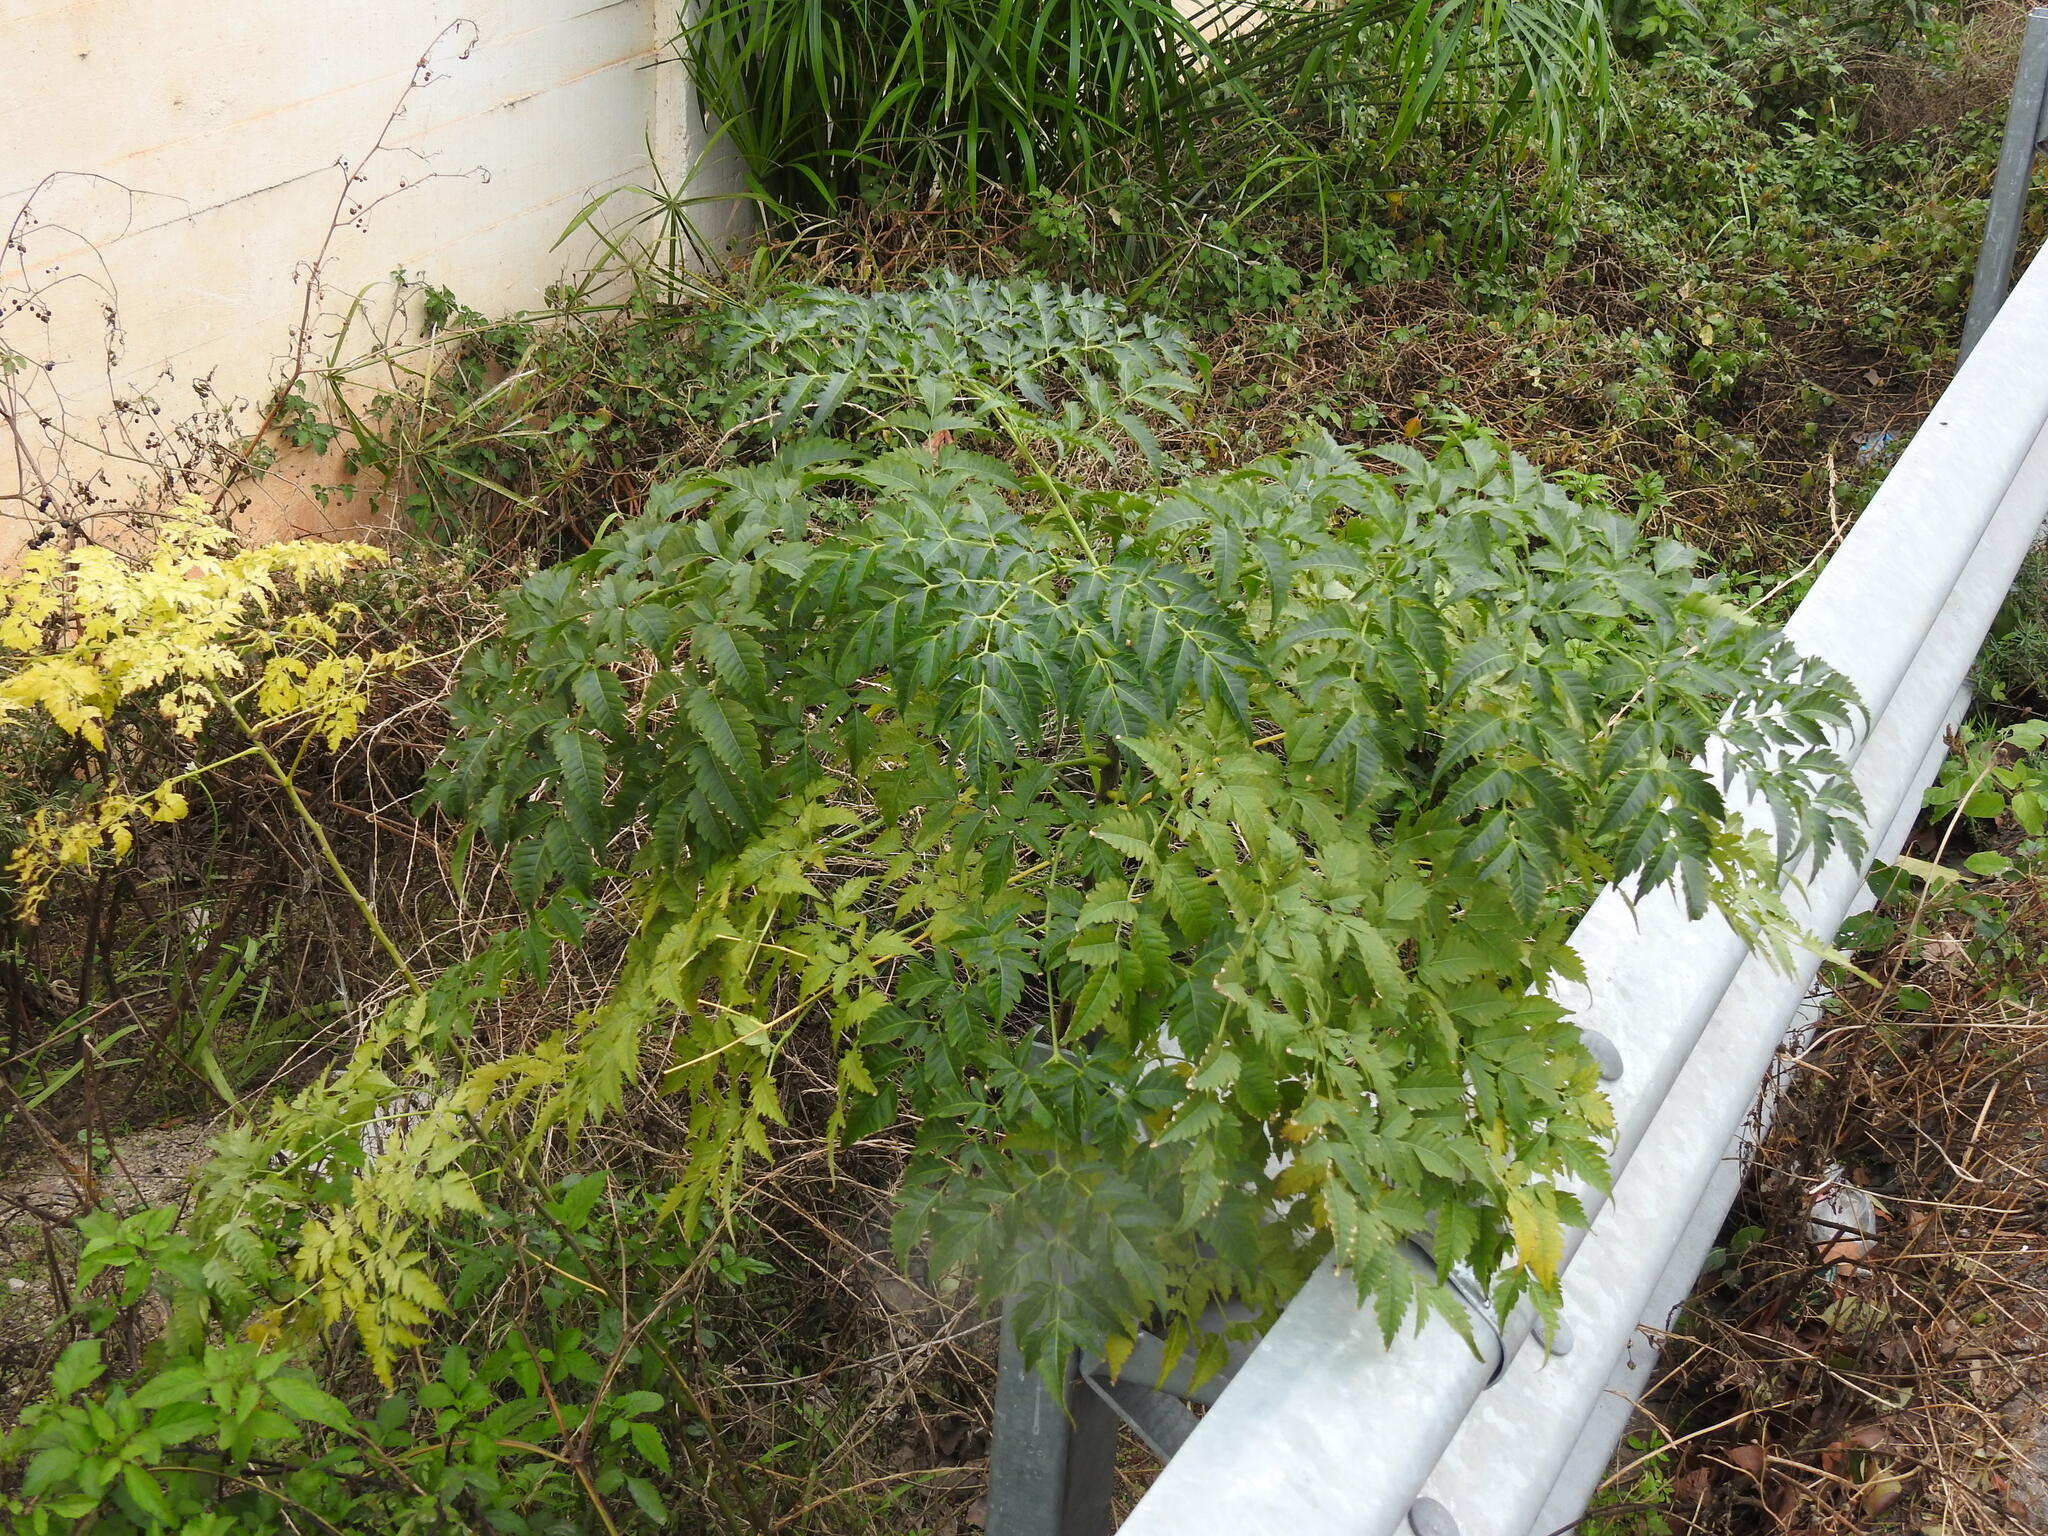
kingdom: Plantae
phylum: Tracheophyta
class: Magnoliopsida
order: Sapindales
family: Meliaceae
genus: Melia
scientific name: Melia azedarach
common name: Chinaberrytree
